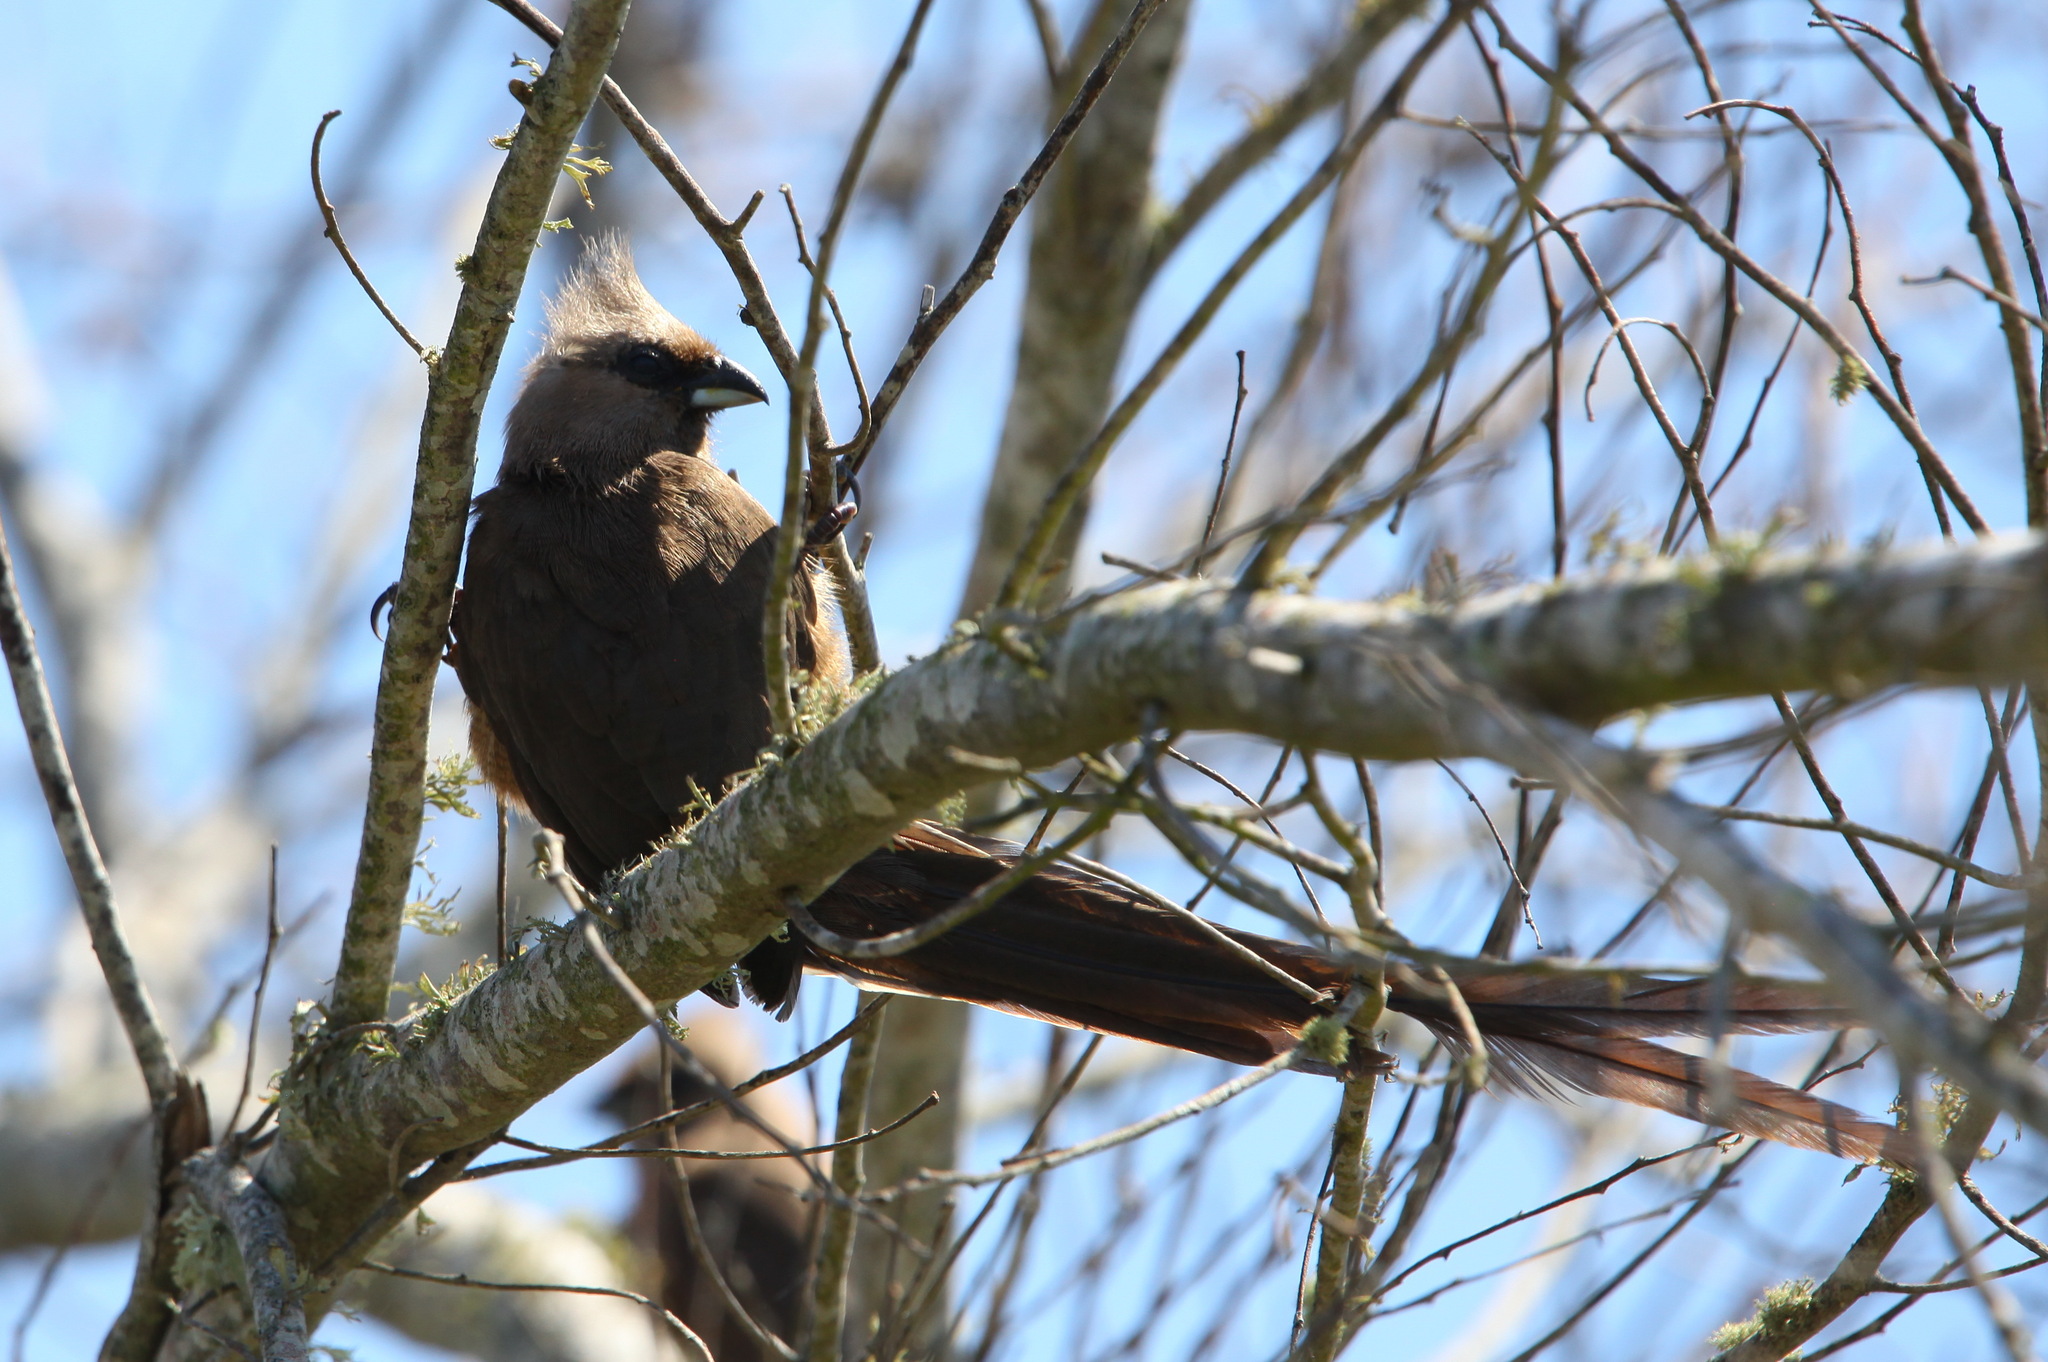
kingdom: Animalia
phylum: Chordata
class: Aves
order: Coliiformes
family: Coliidae
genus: Colius
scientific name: Colius striatus
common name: Speckled mousebird
